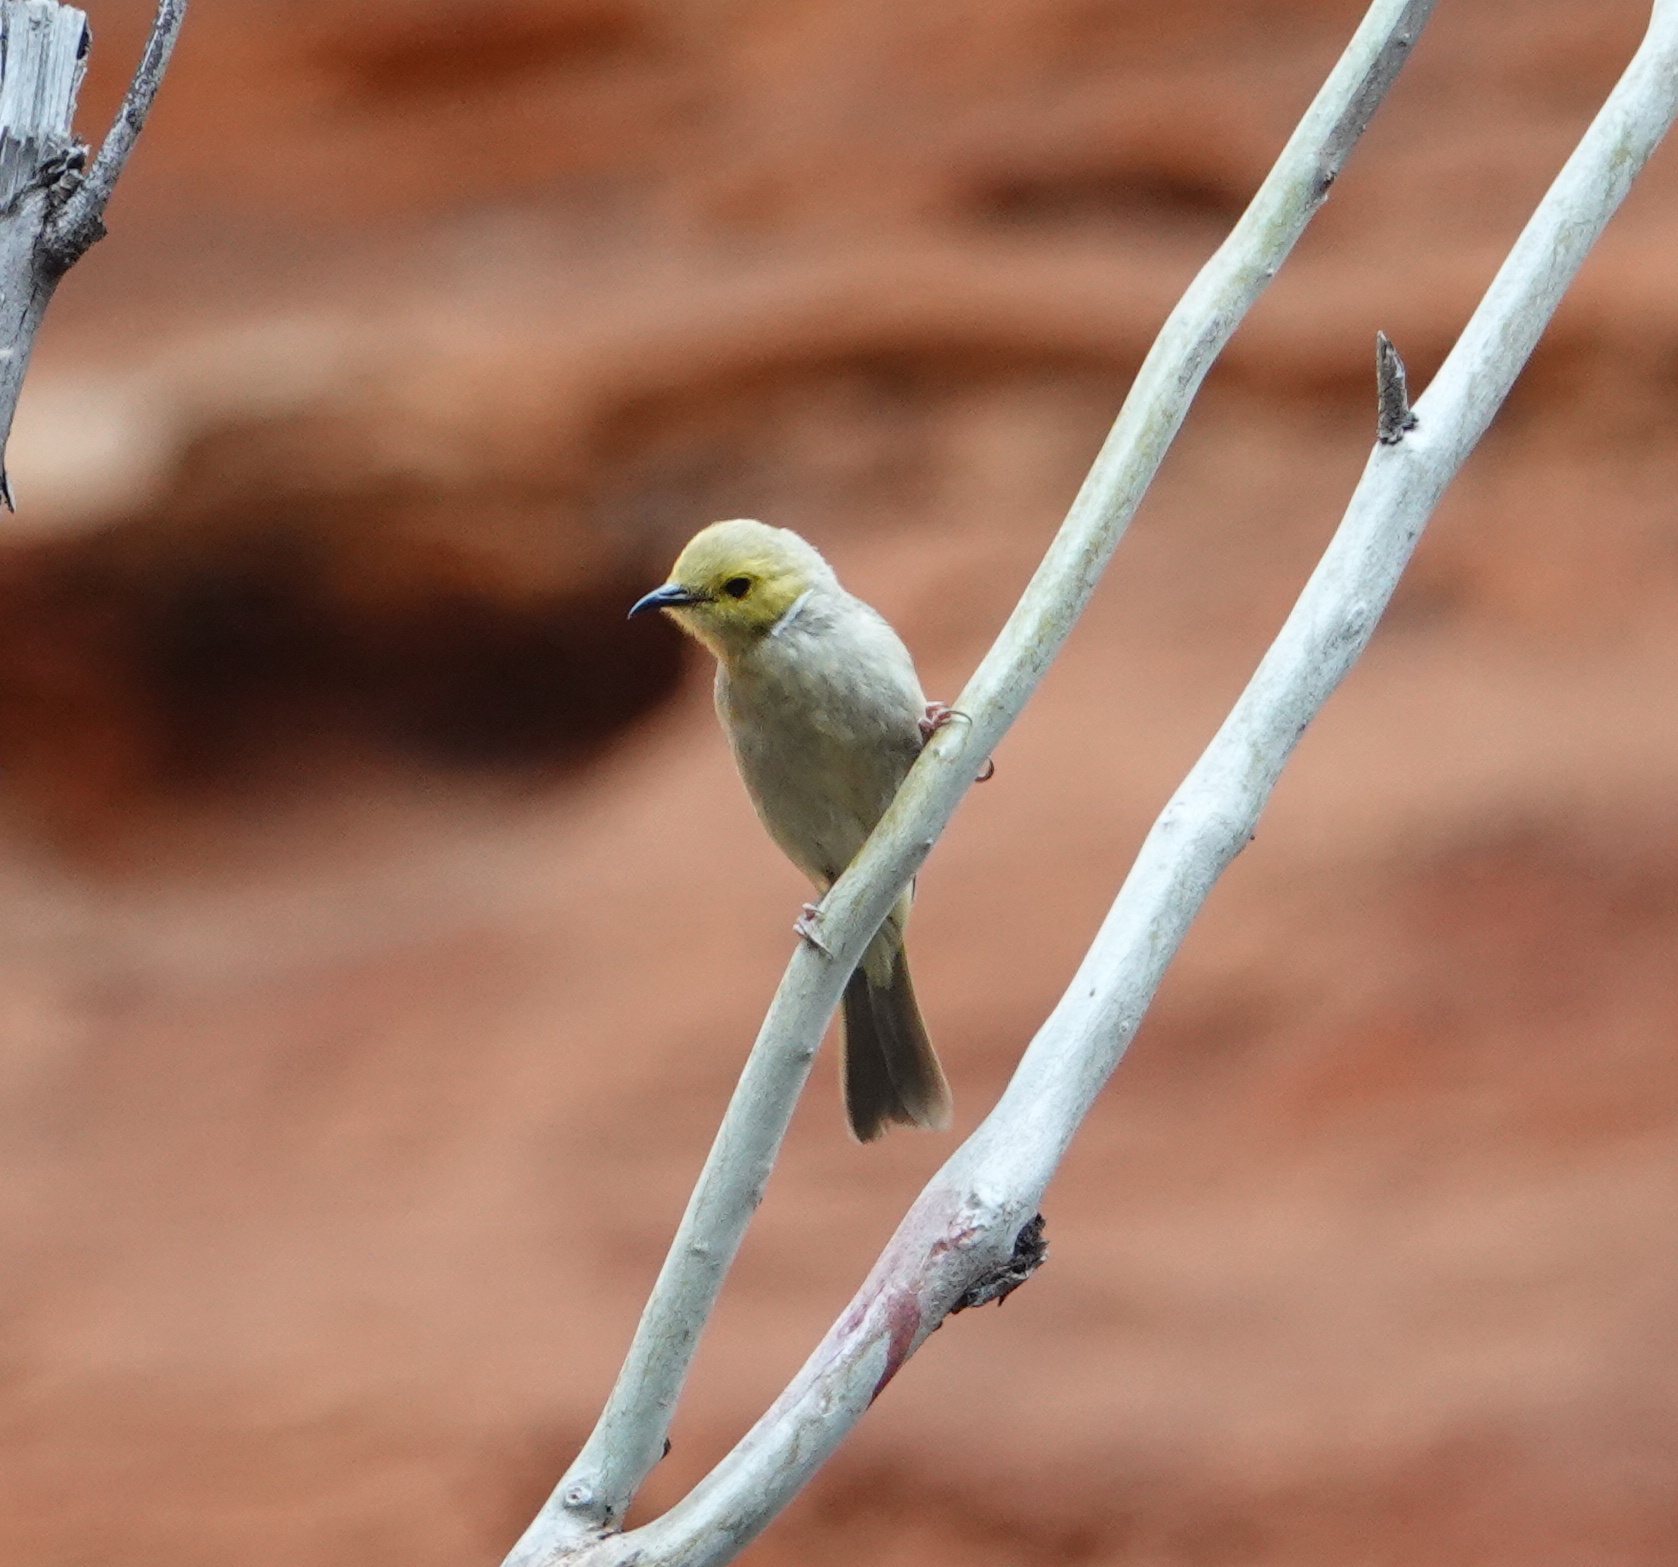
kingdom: Animalia
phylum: Chordata
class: Aves
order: Passeriformes
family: Meliphagidae
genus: Ptilotula
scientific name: Ptilotula penicillata
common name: White-plumed honeyeater
